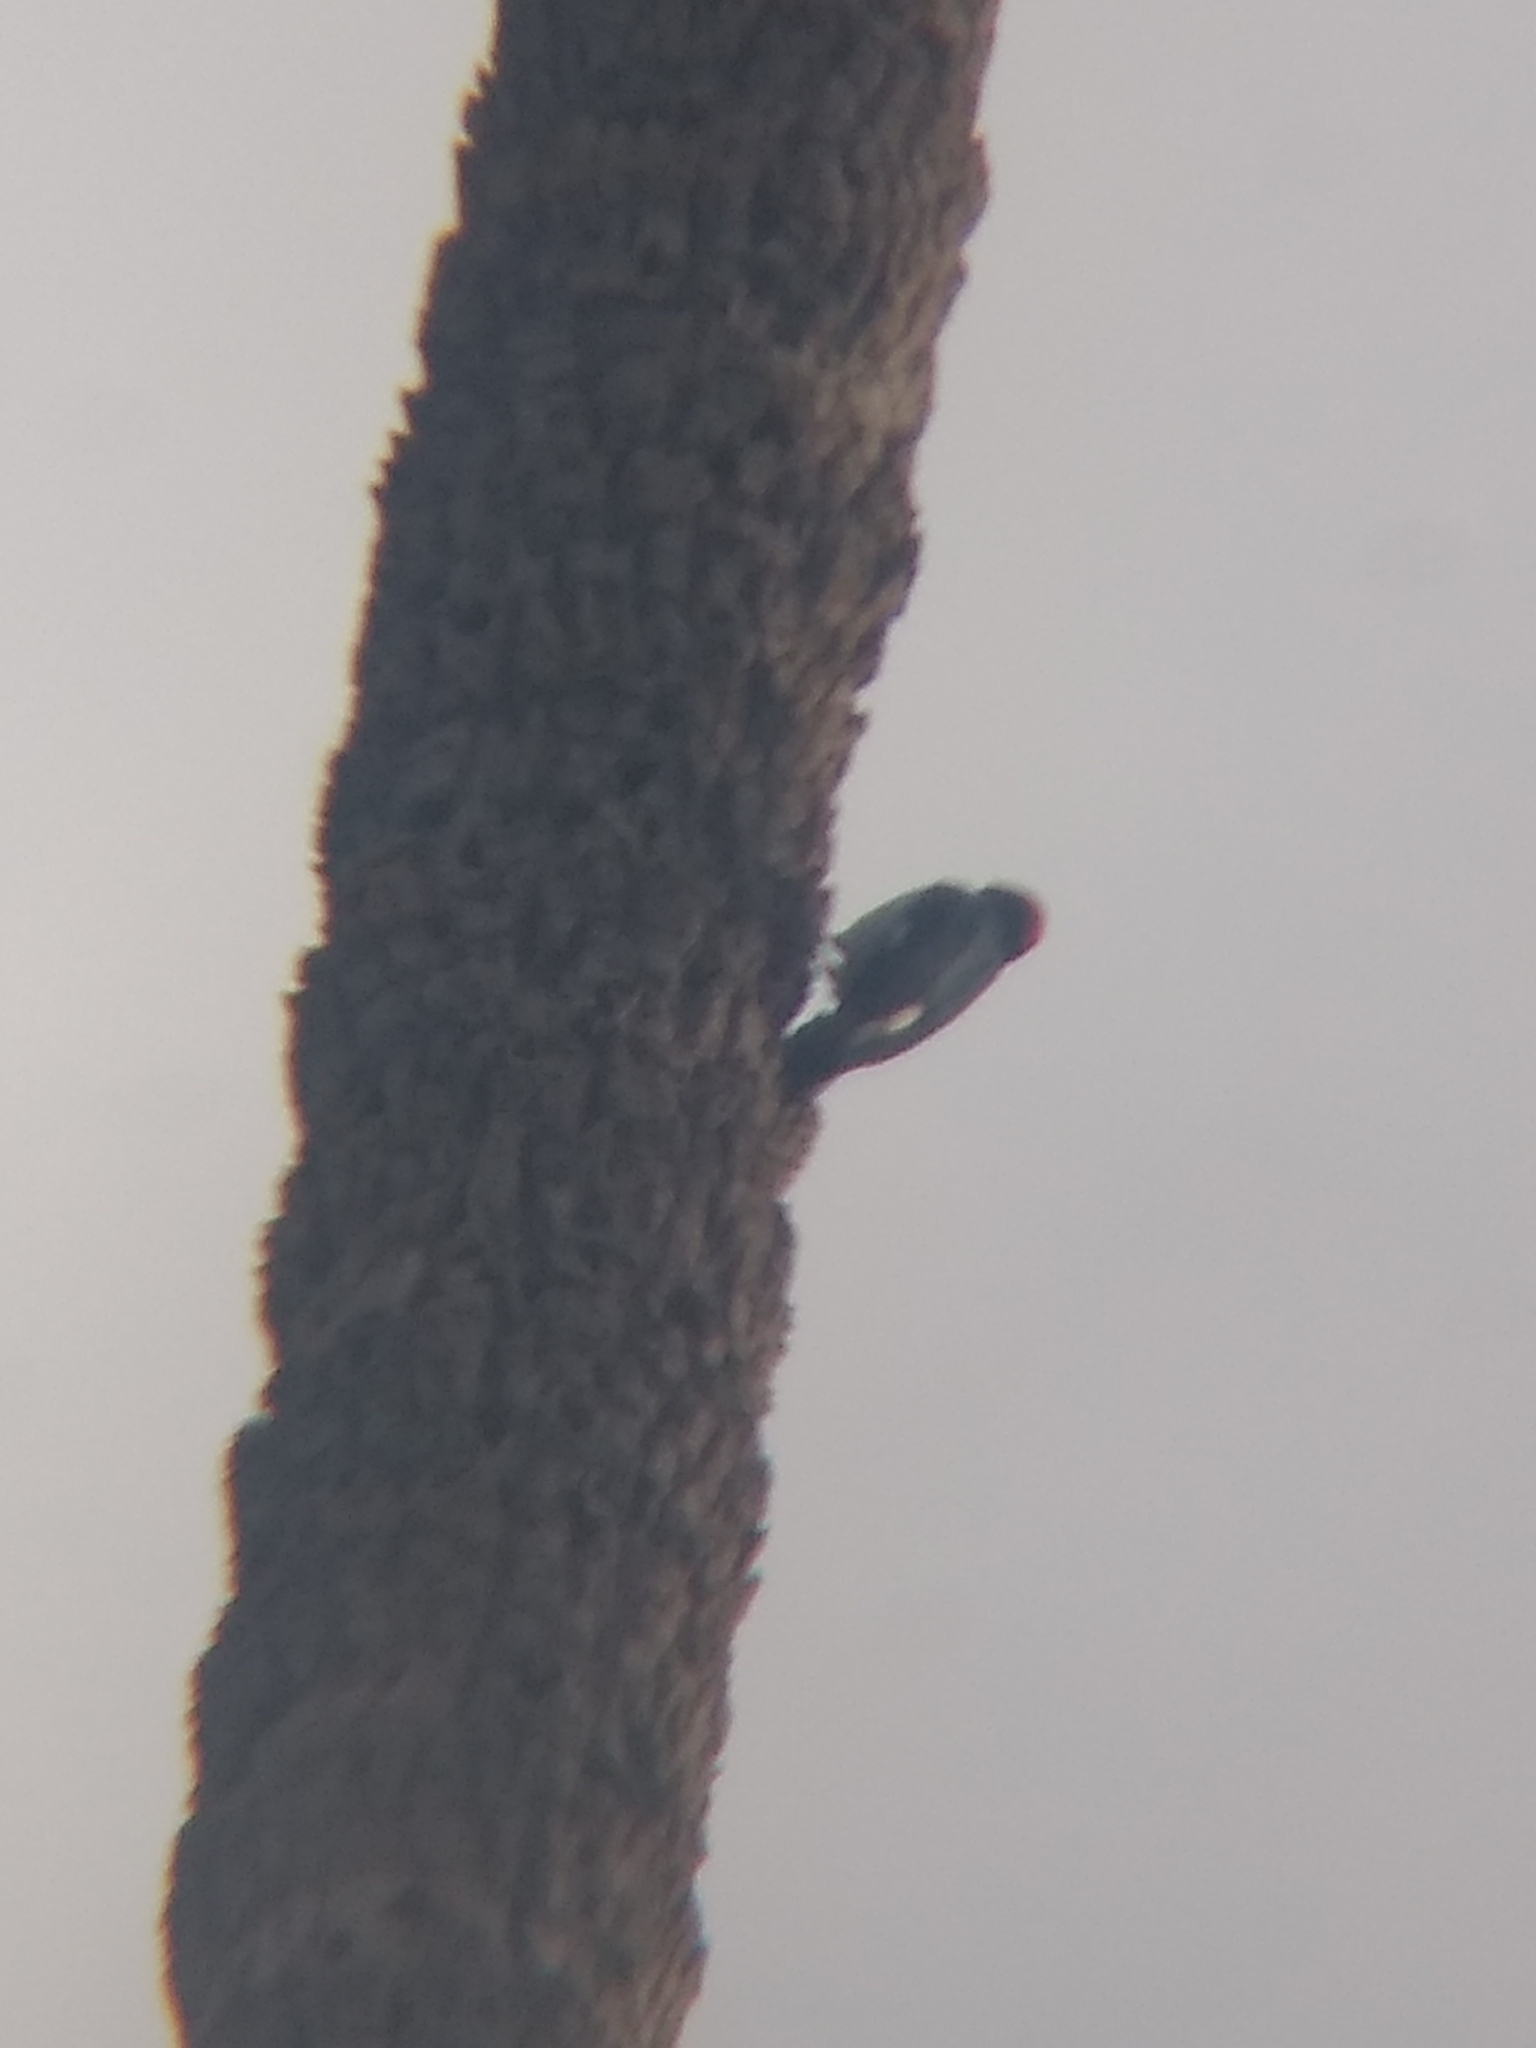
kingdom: Animalia
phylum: Chordata
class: Aves
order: Piciformes
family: Picidae
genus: Melanerpes
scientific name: Melanerpes formicivorus
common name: Acorn woodpecker
